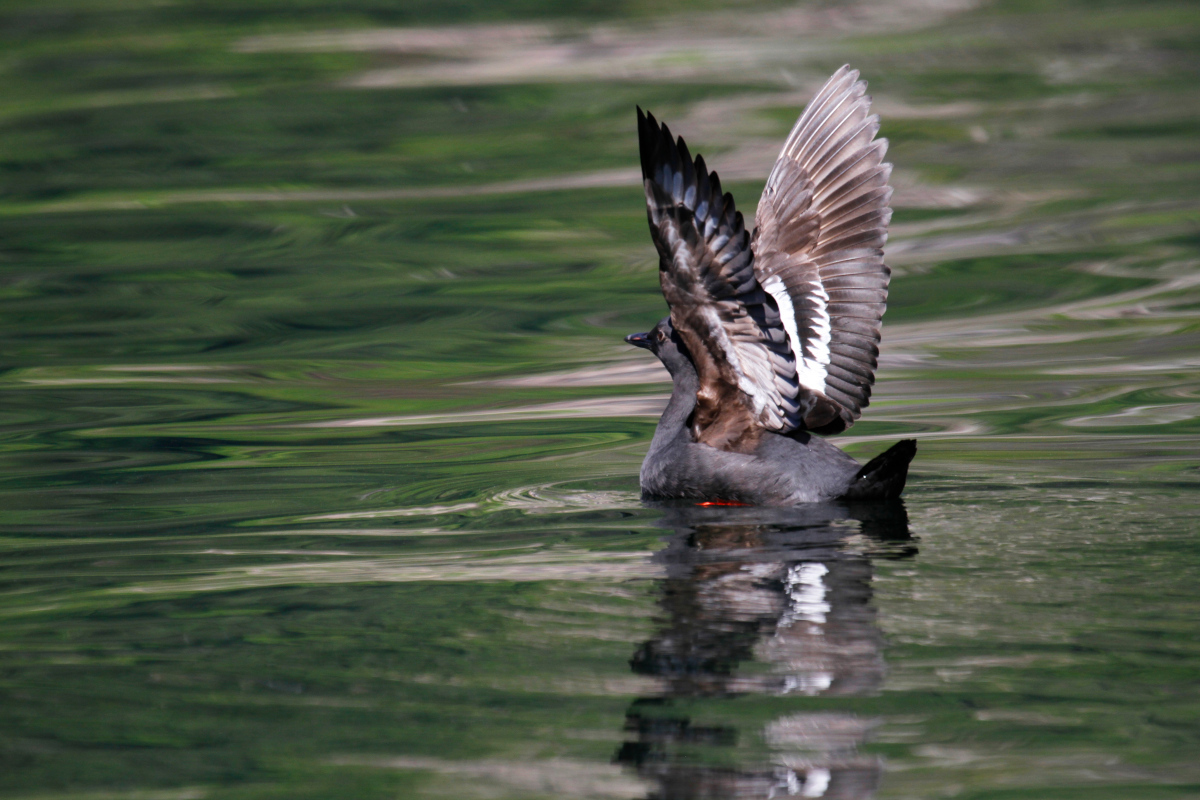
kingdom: Animalia
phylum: Chordata
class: Aves
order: Charadriiformes
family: Alcidae
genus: Cepphus
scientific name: Cepphus columba
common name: Pigeon guillemot
